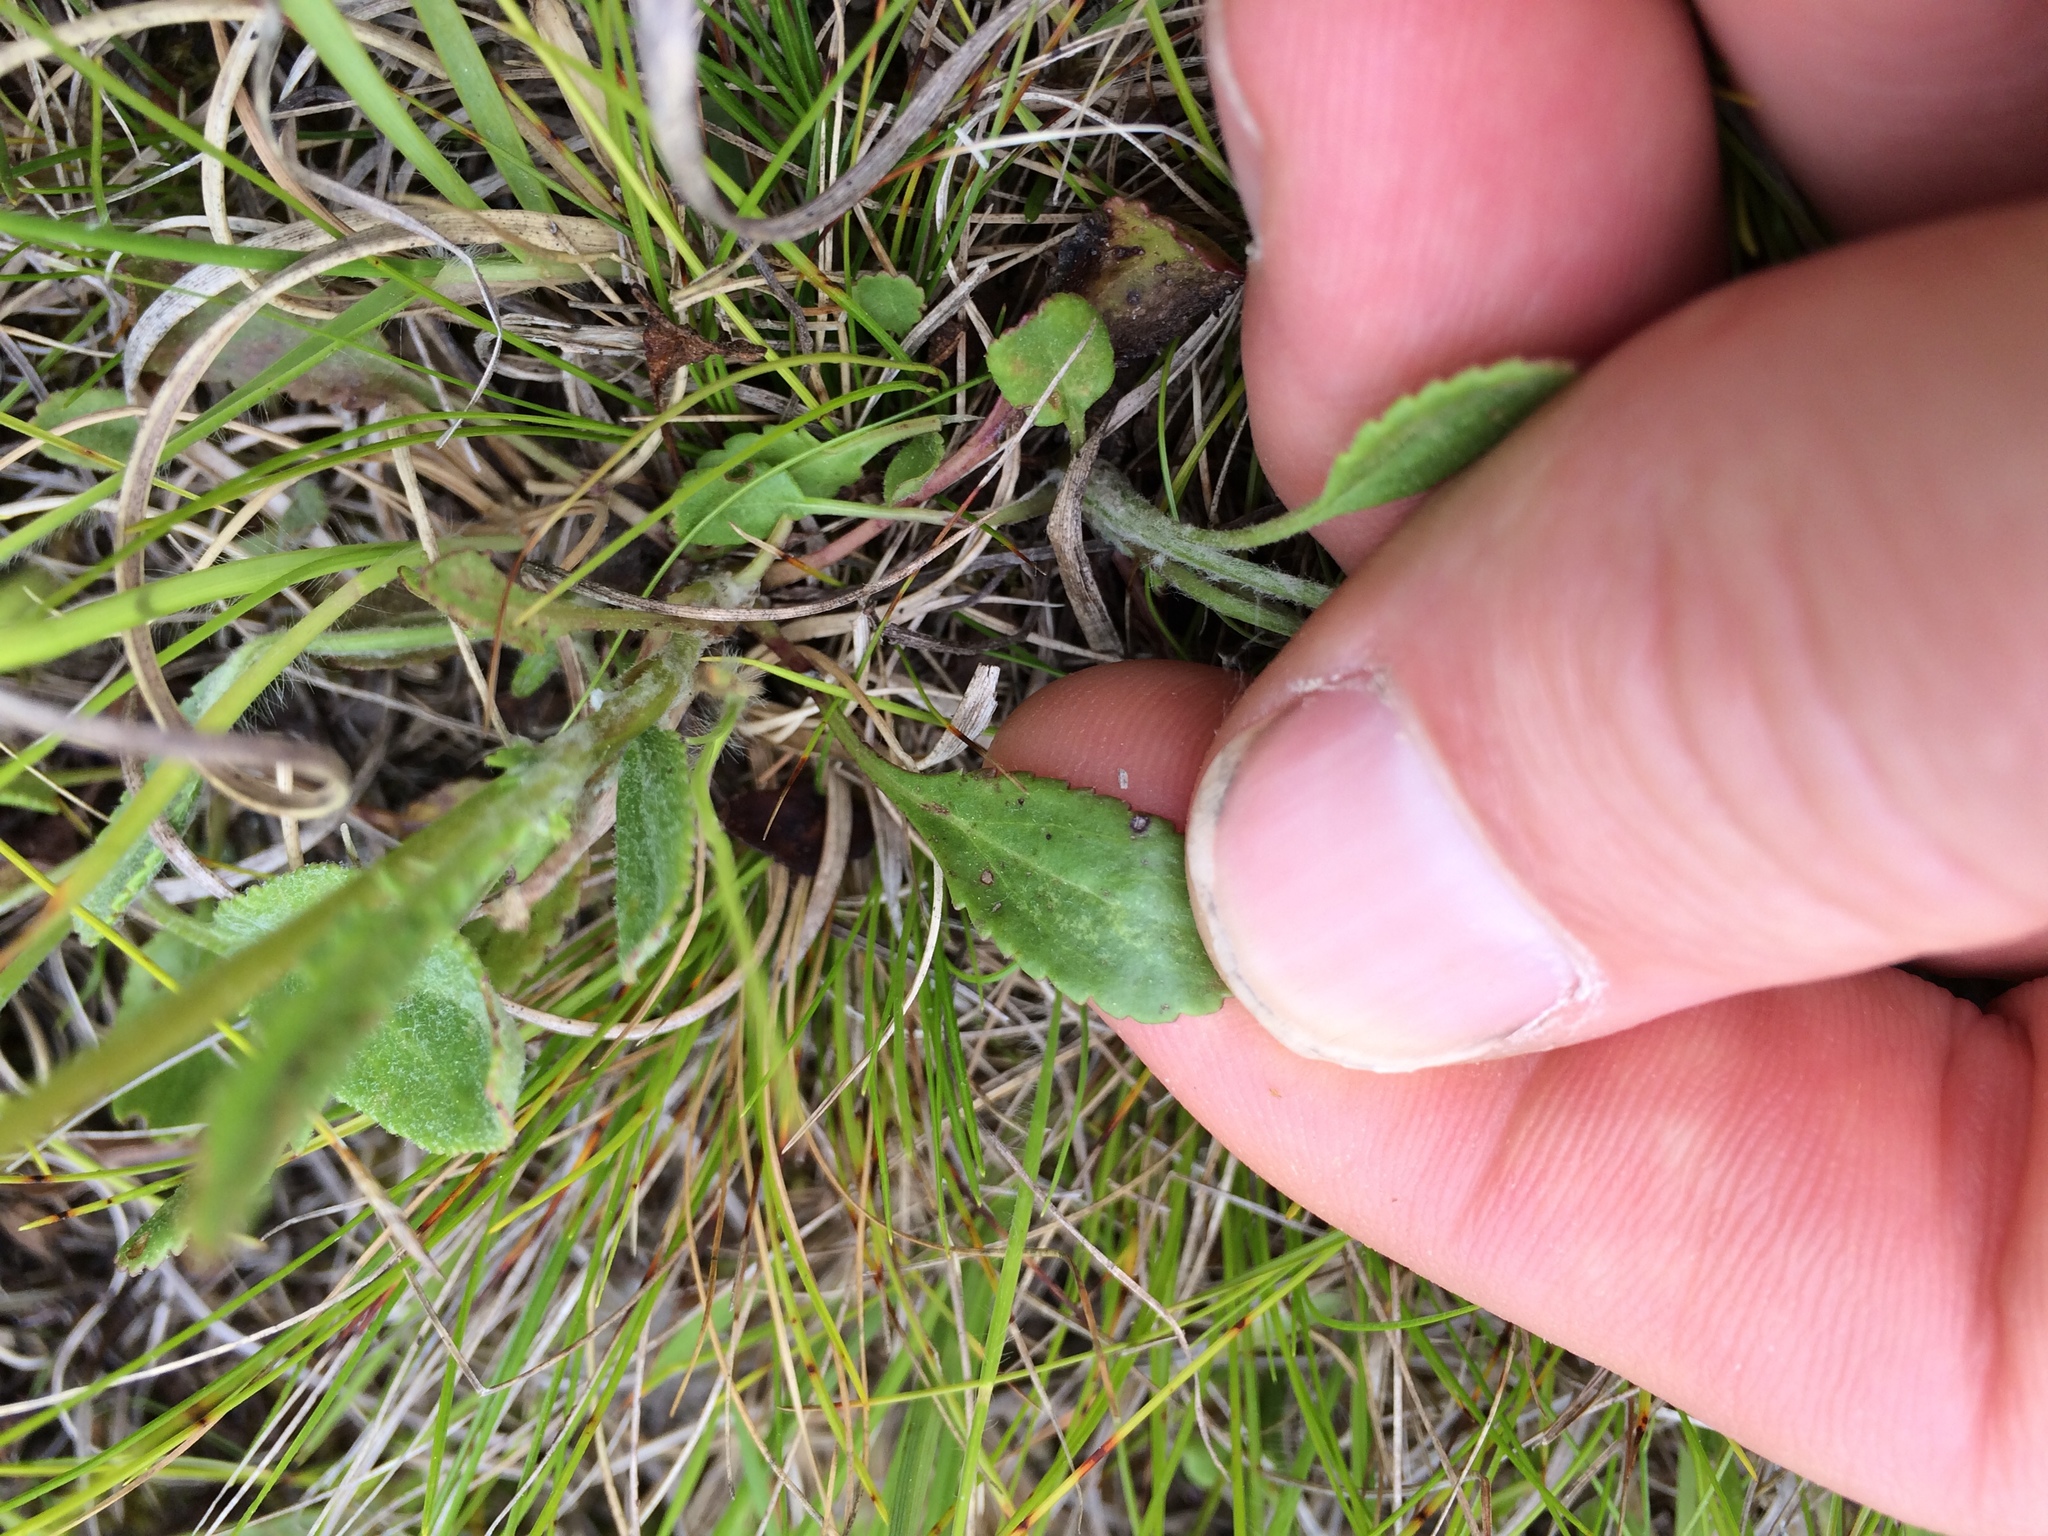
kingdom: Plantae
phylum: Tracheophyta
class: Magnoliopsida
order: Asterales
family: Asteraceae
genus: Packera
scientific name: Packera paupercula
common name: Balsam groundsel
